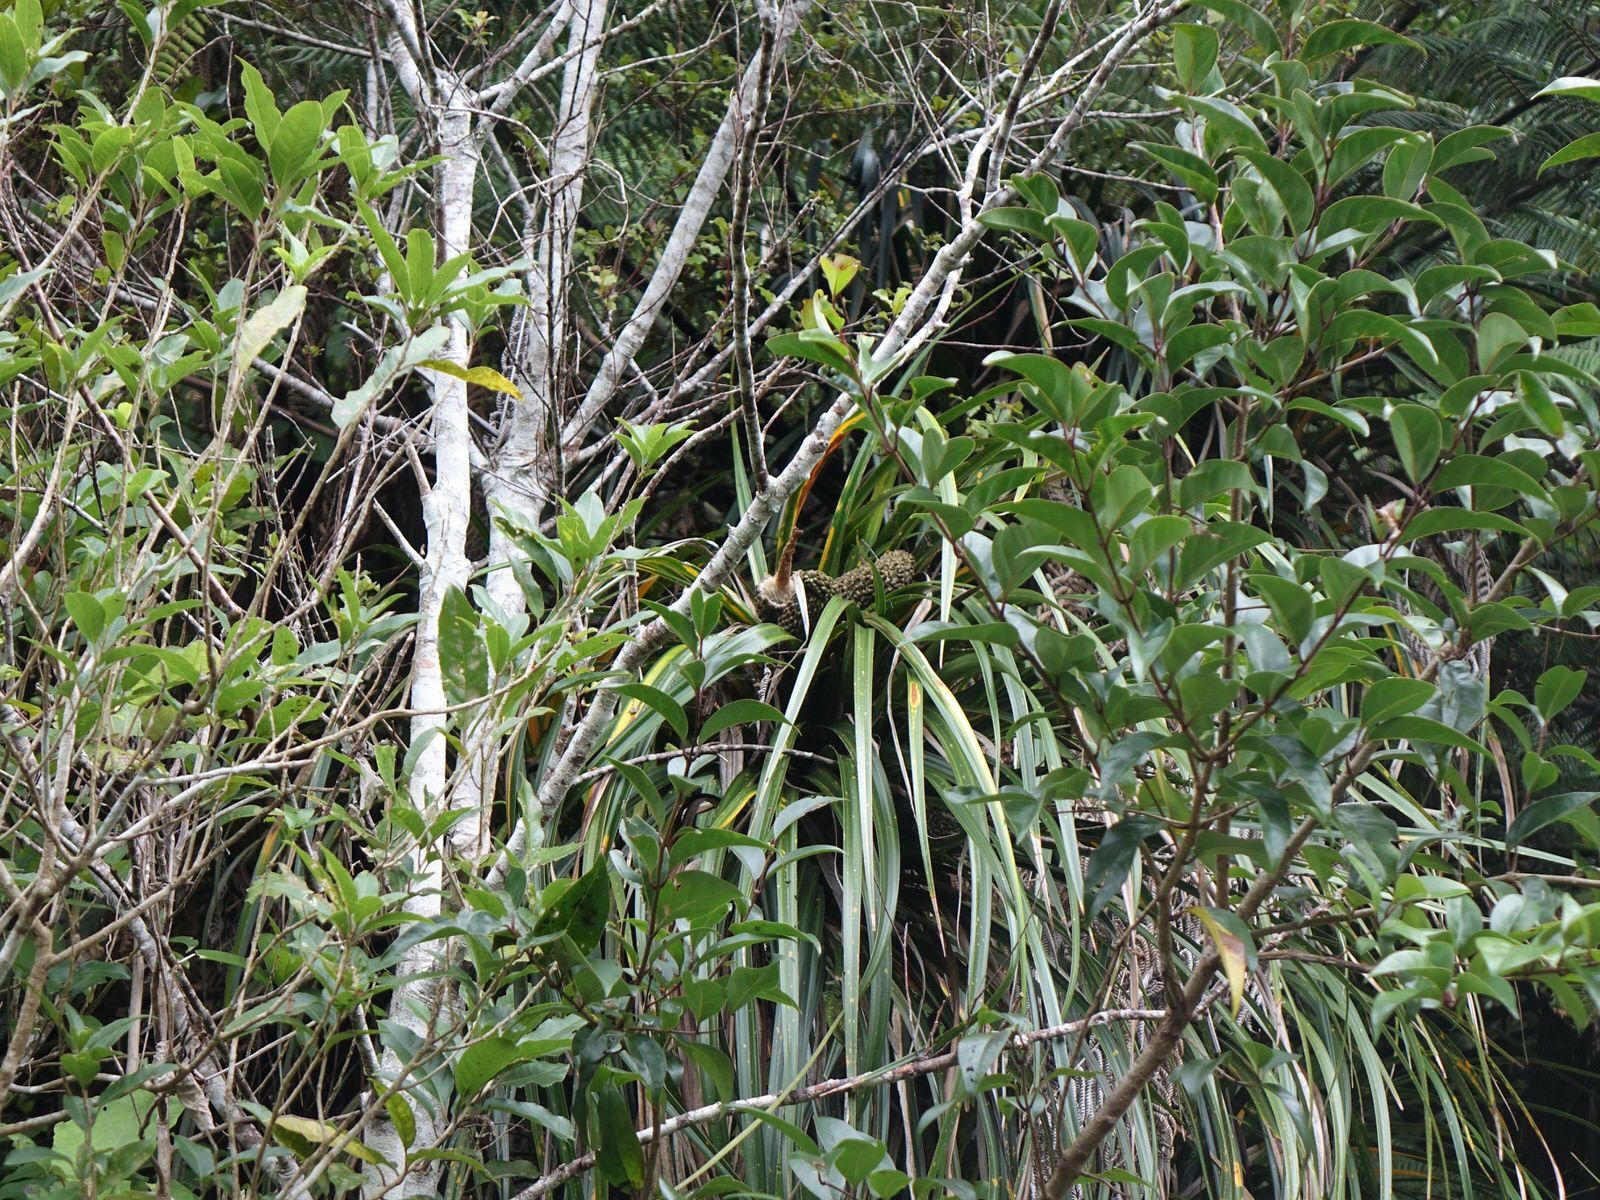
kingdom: Plantae
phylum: Tracheophyta
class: Liliopsida
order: Pandanales
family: Pandanaceae
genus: Freycinetia
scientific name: Freycinetia banksii
